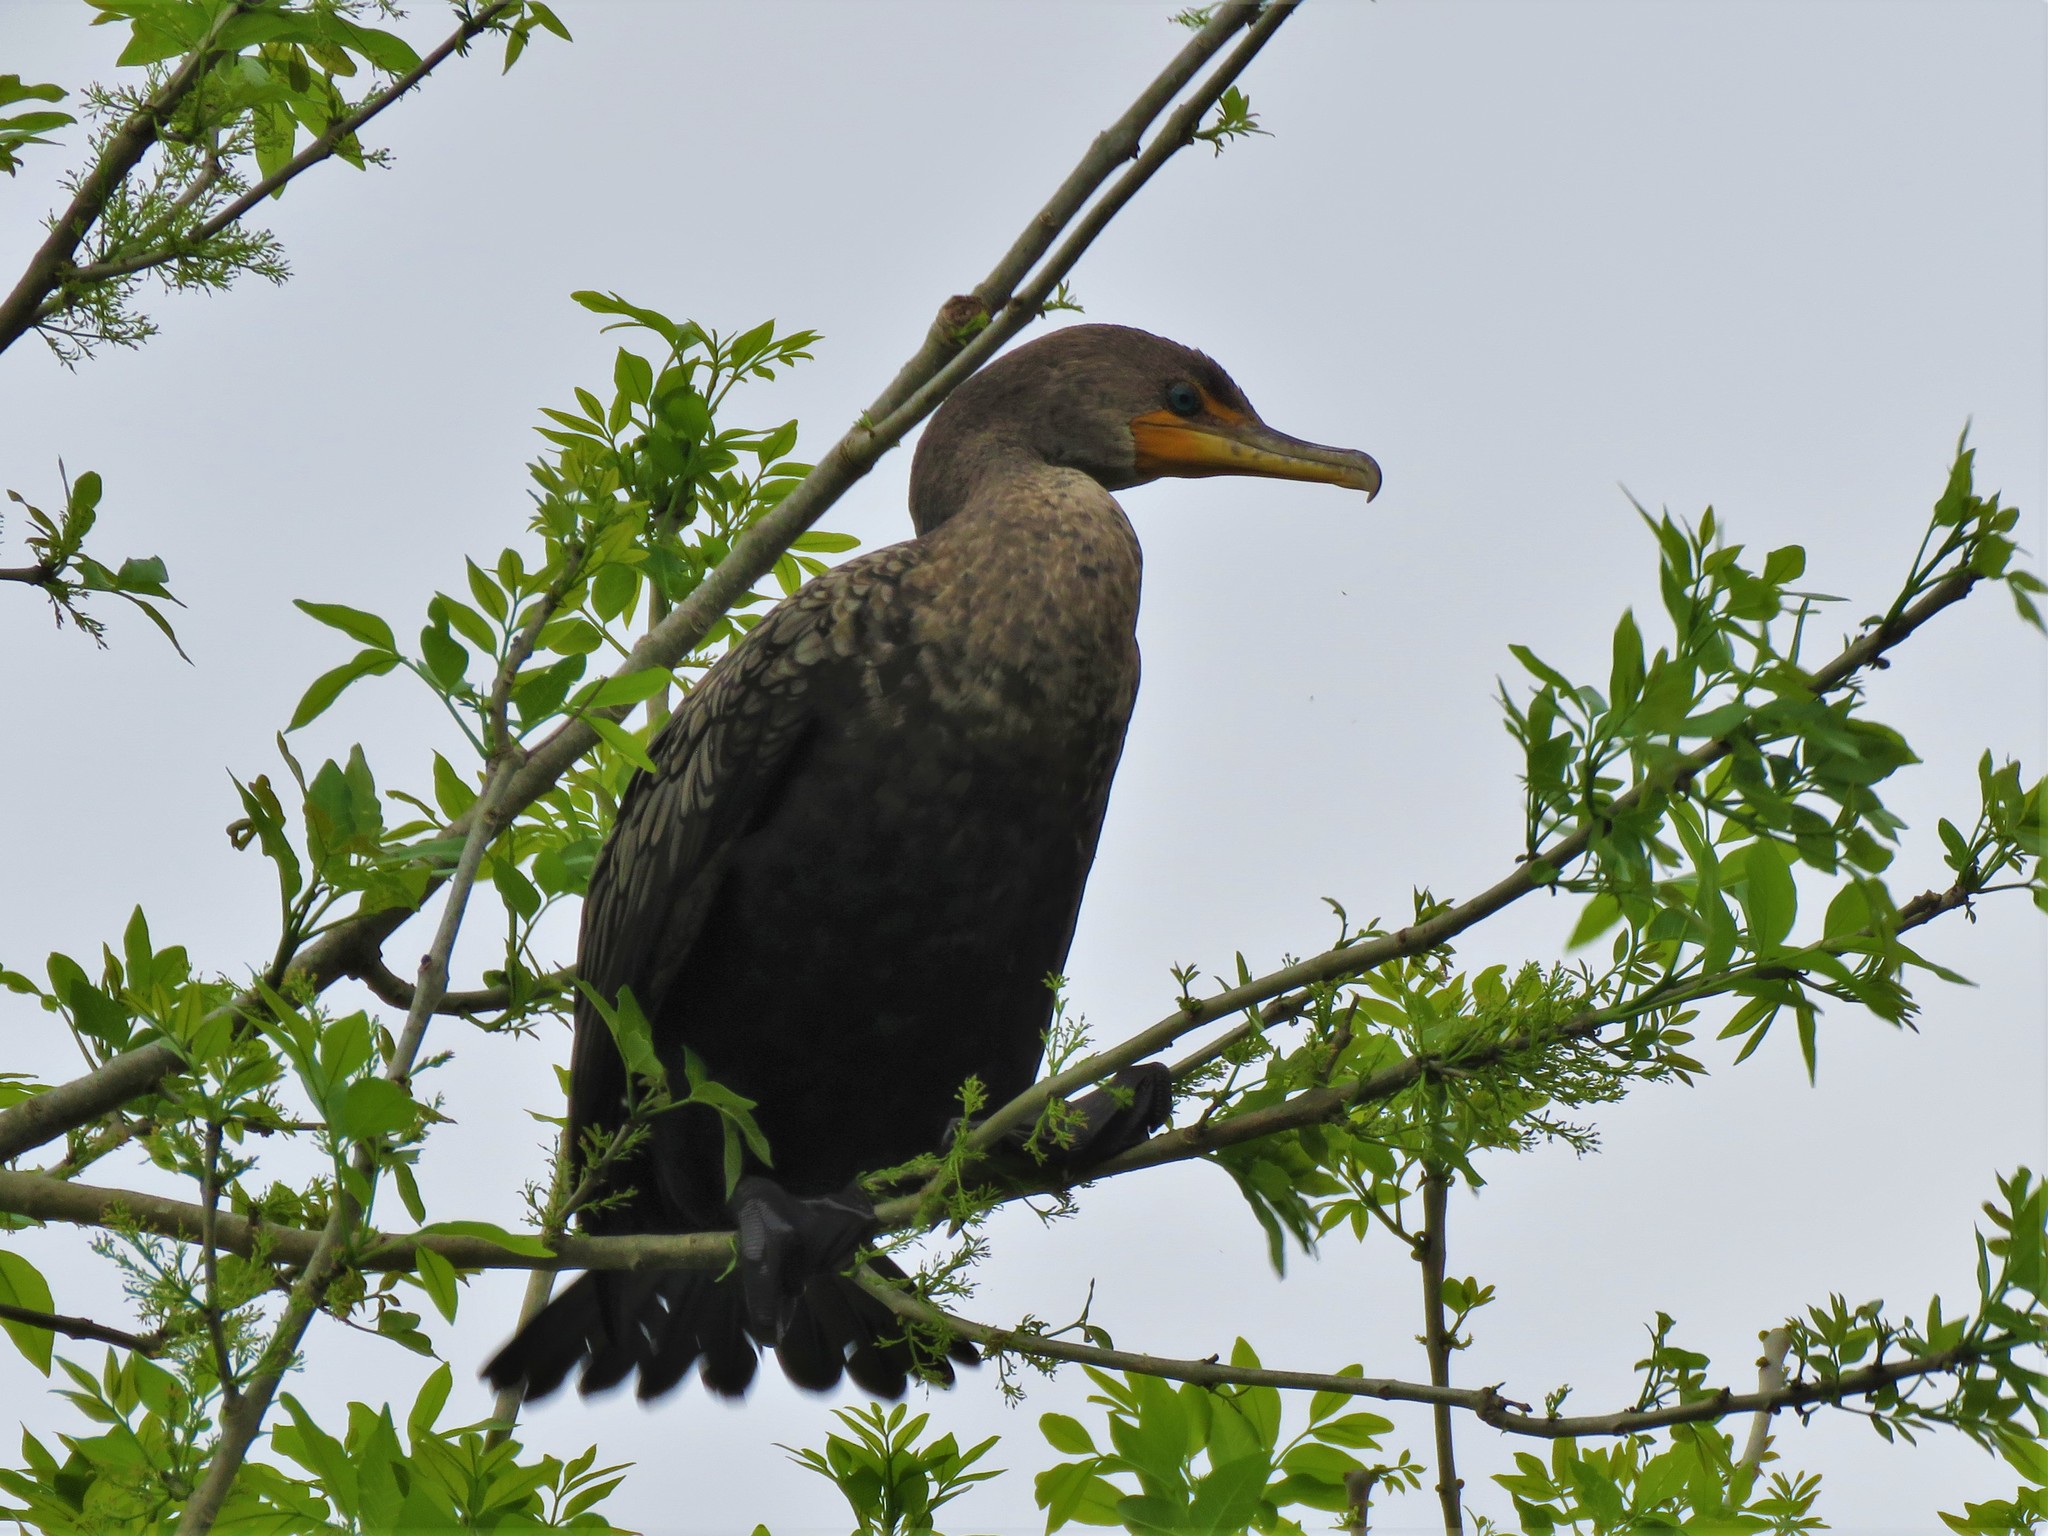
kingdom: Animalia
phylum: Chordata
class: Aves
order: Suliformes
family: Phalacrocoracidae
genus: Phalacrocorax
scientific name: Phalacrocorax auritus
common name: Double-crested cormorant
